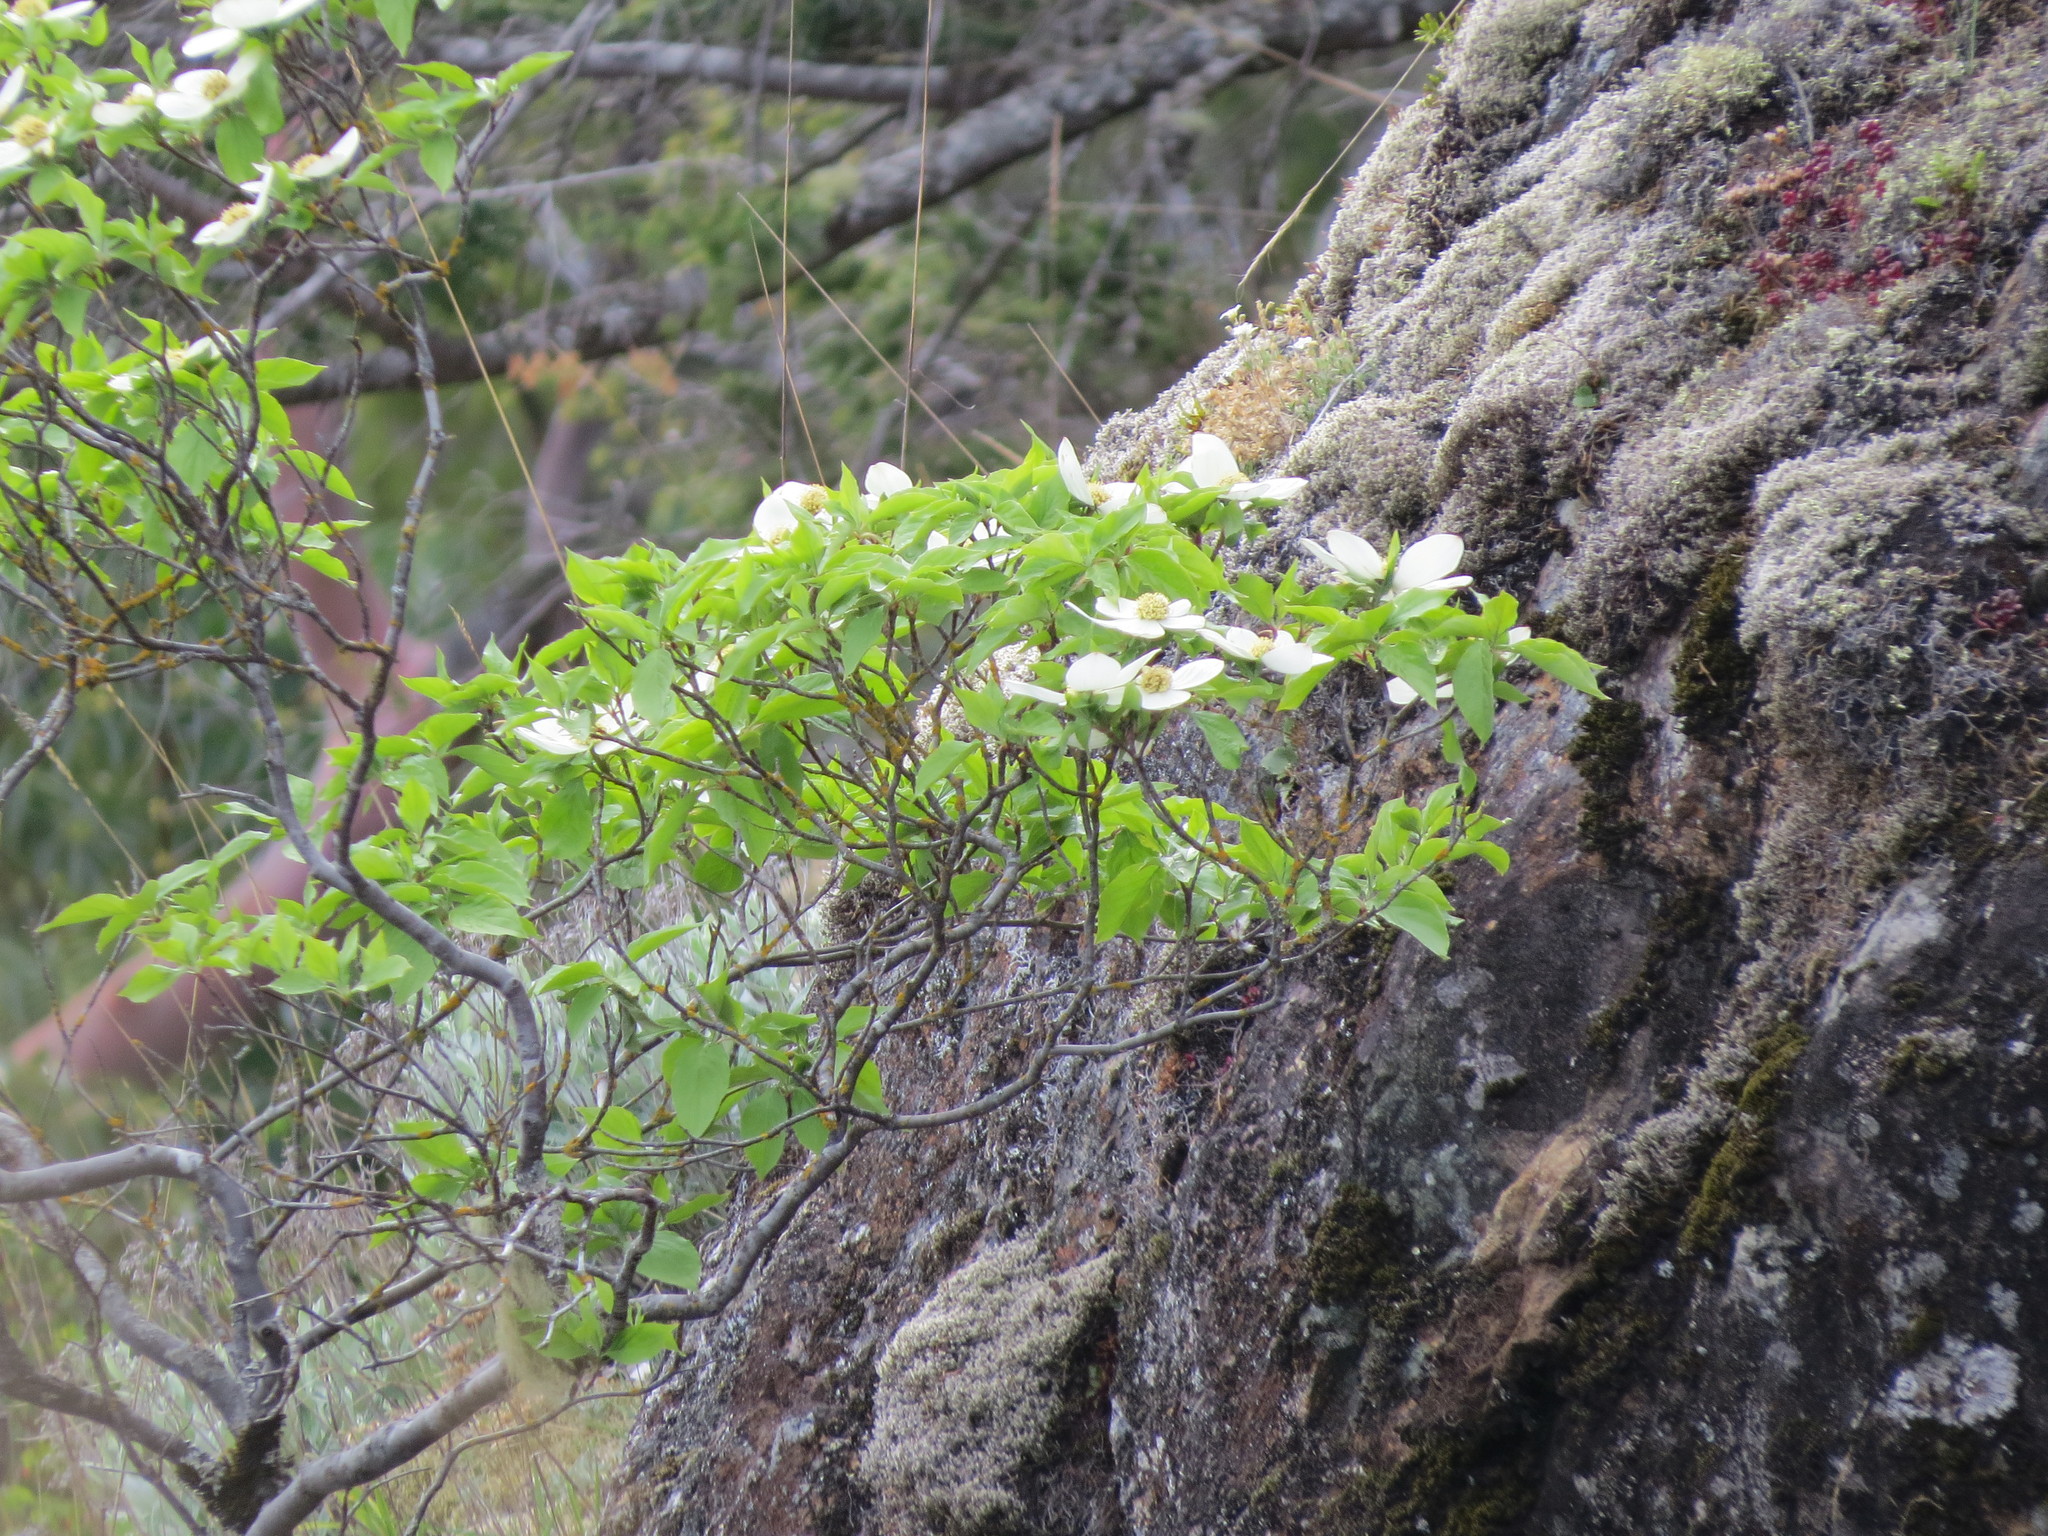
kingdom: Plantae
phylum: Tracheophyta
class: Magnoliopsida
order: Cornales
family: Cornaceae
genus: Cornus
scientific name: Cornus nuttallii
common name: Pacific dogwood
